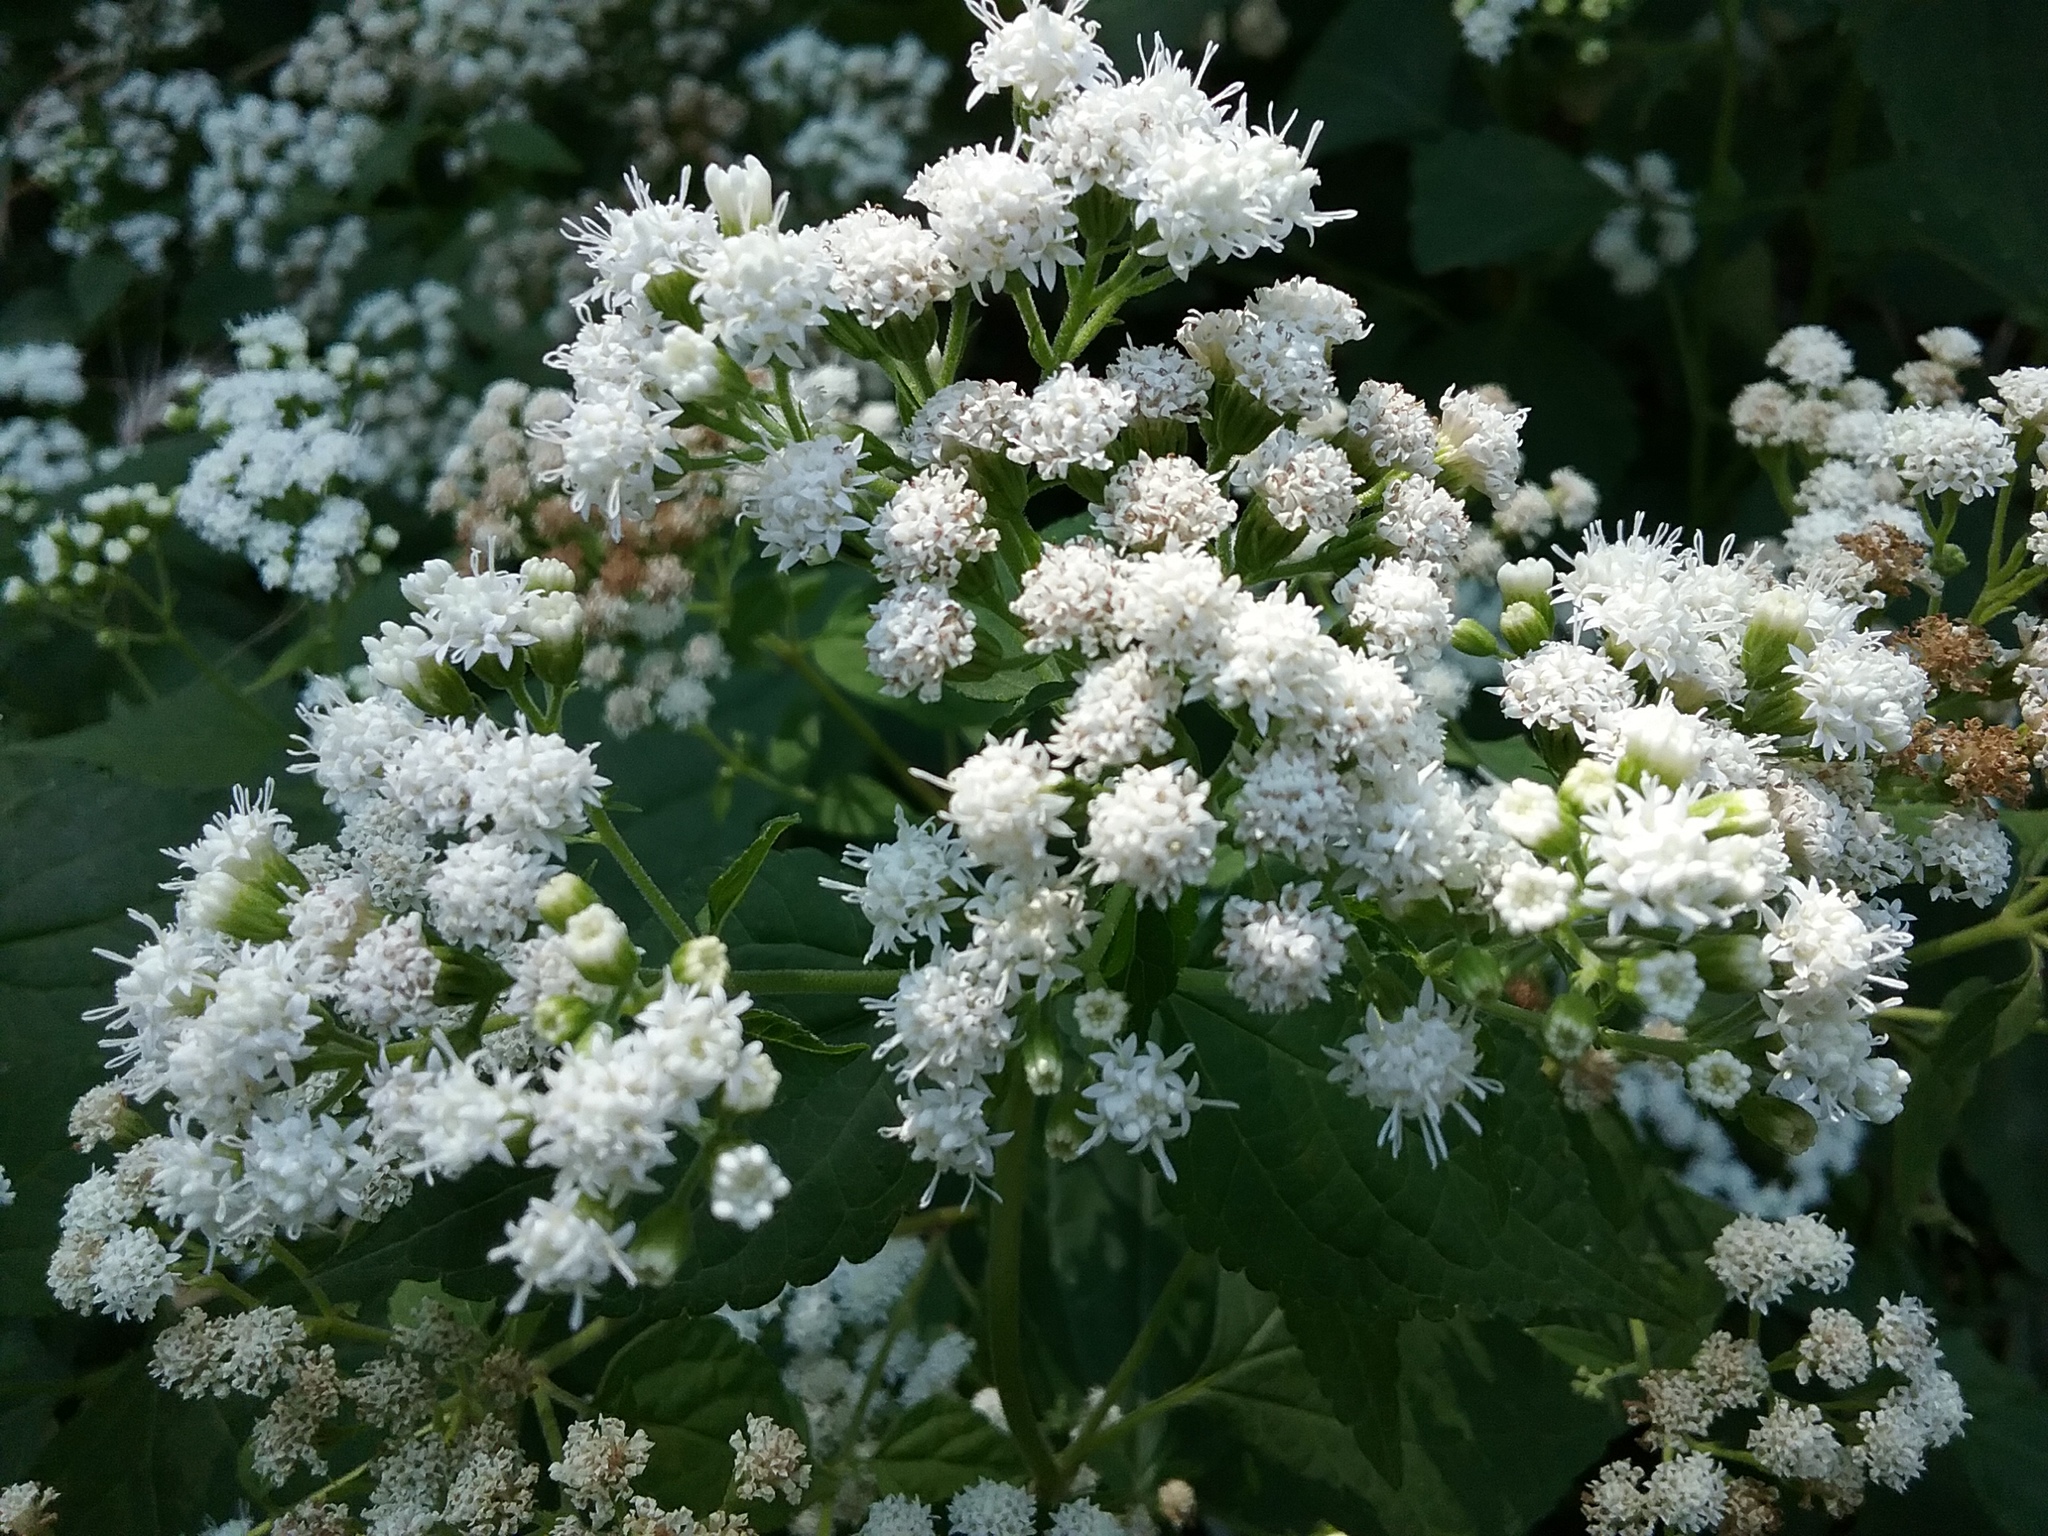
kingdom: Plantae
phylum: Tracheophyta
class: Magnoliopsida
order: Asterales
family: Asteraceae
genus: Ageratina
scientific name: Ageratina altissima
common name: White snakeroot
